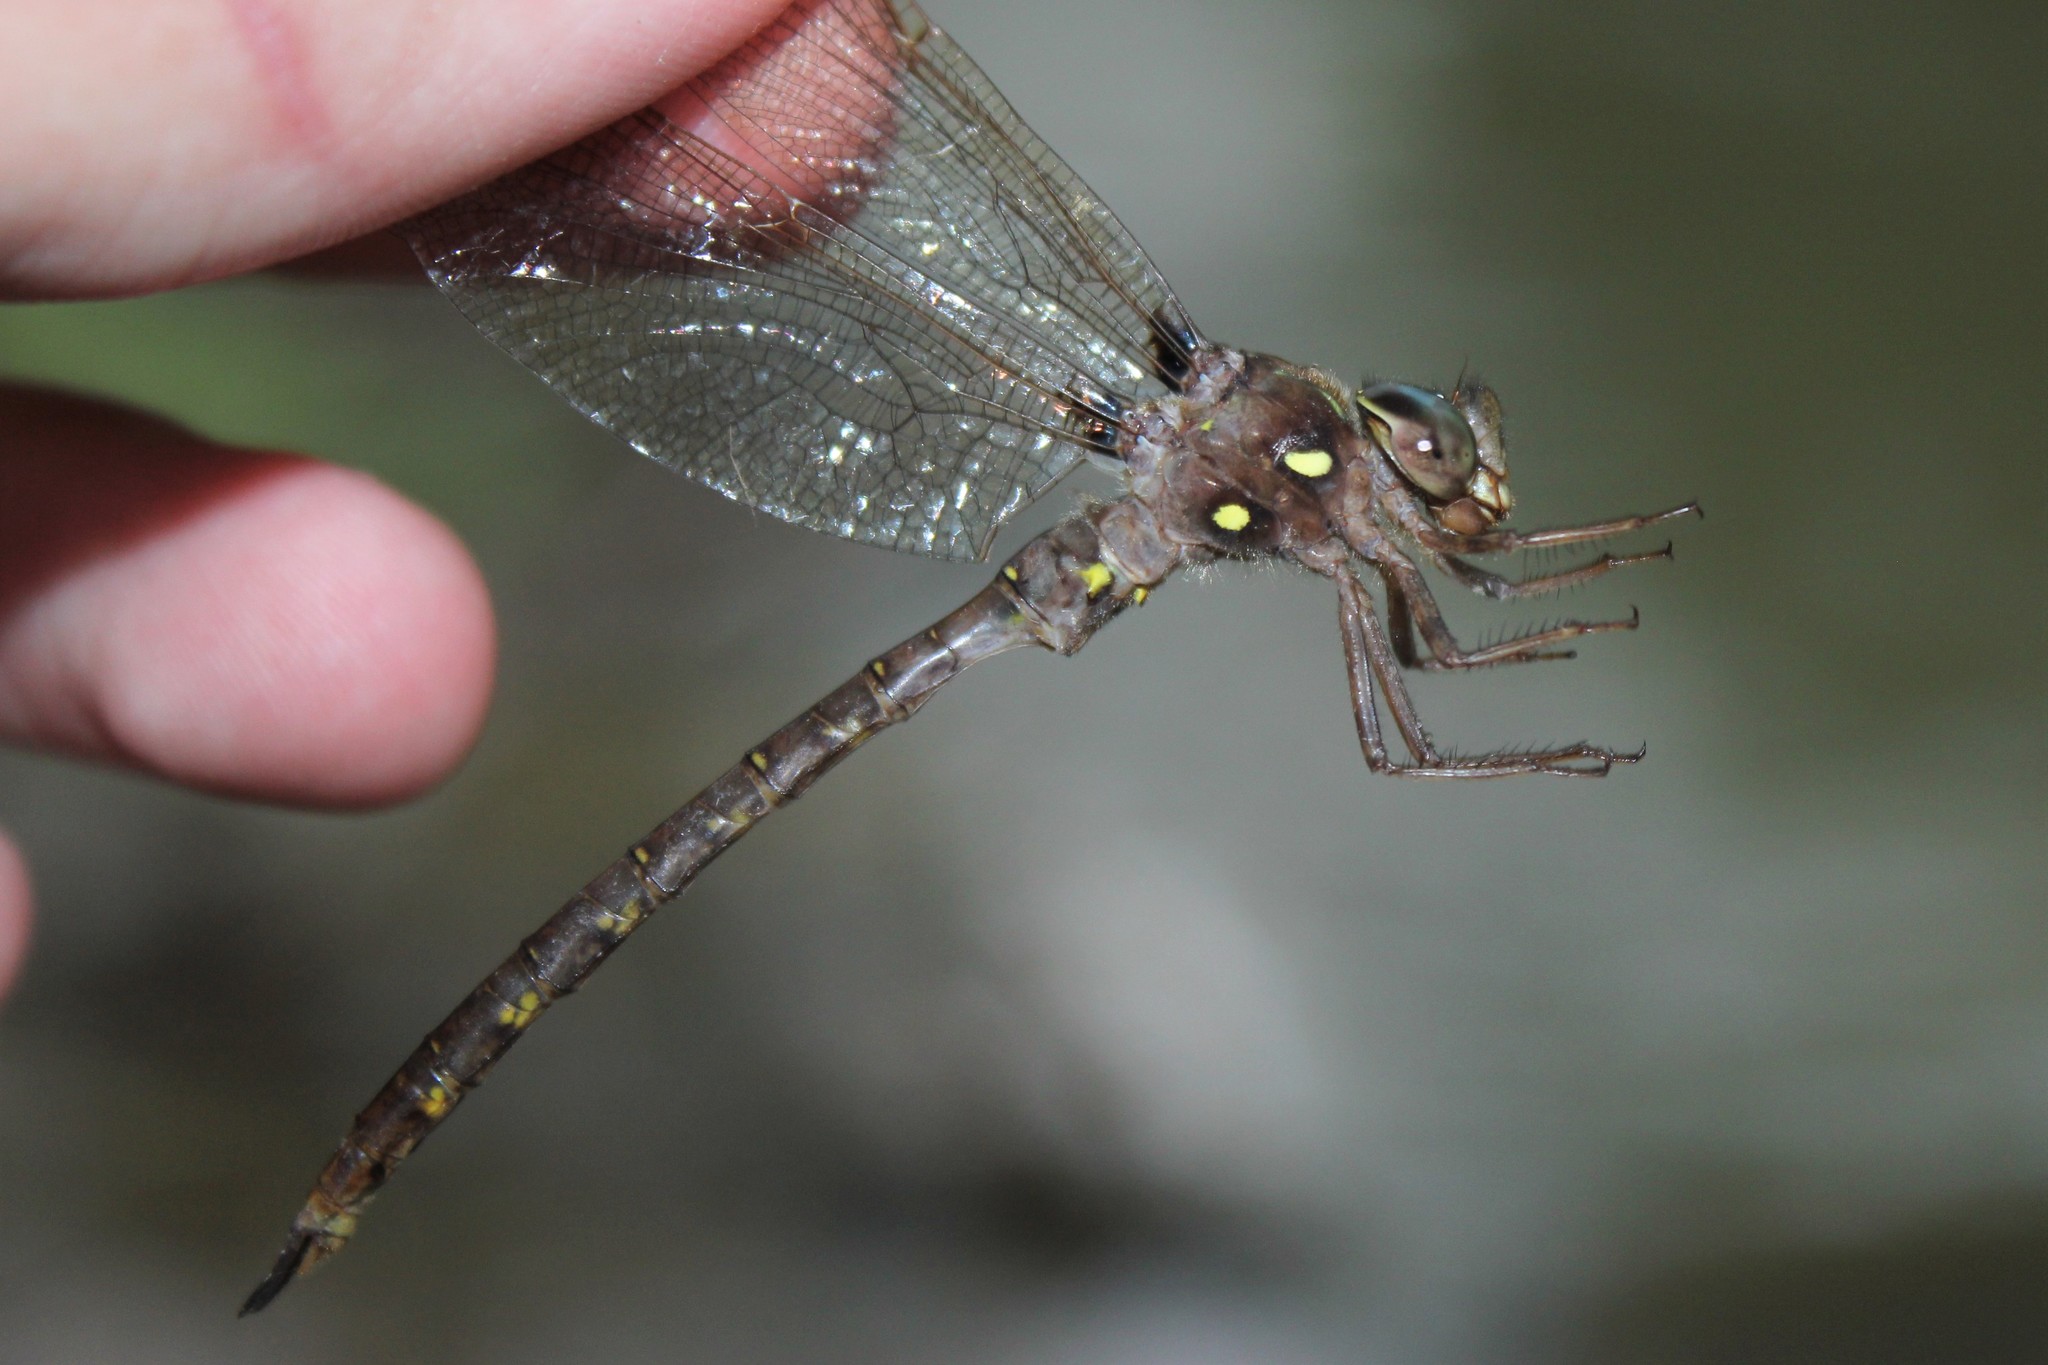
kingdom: Animalia
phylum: Arthropoda
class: Insecta
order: Odonata
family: Aeshnidae
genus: Boyeria
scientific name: Boyeria vinosa
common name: Fawn darner
